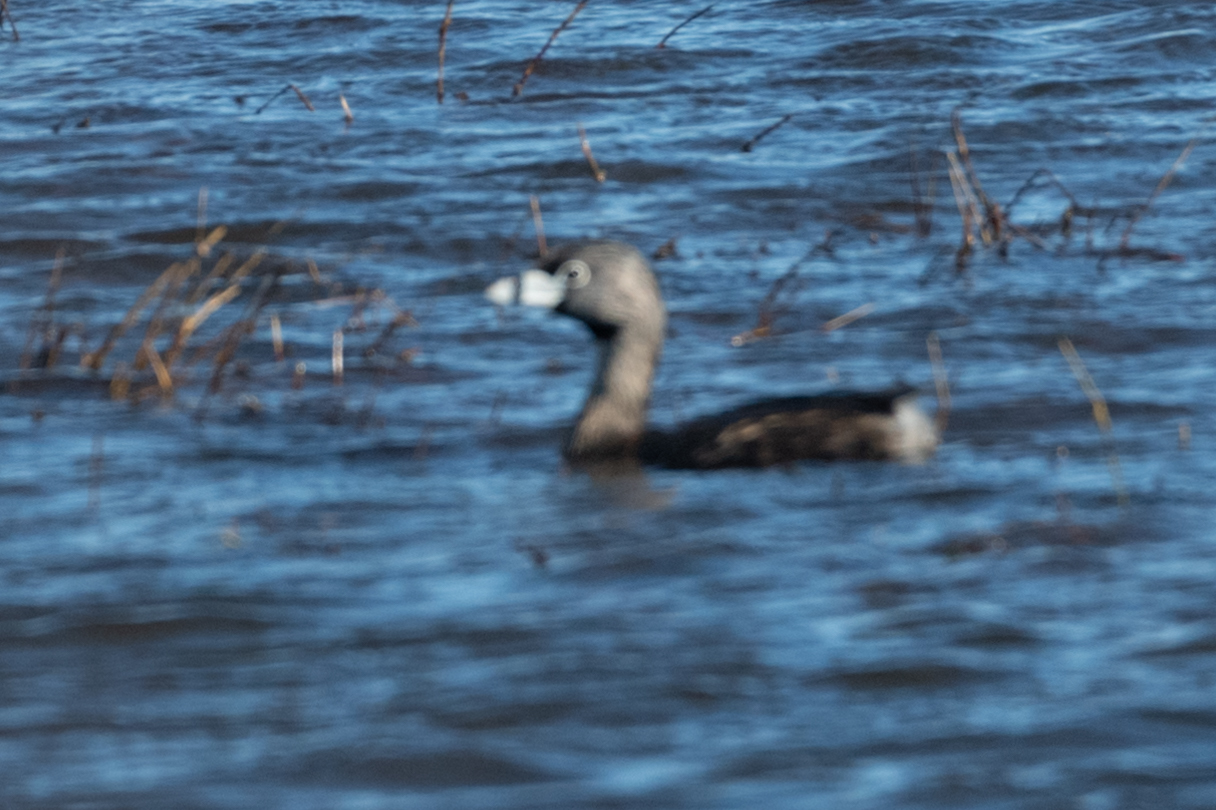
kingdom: Animalia
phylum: Chordata
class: Aves
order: Podicipediformes
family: Podicipedidae
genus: Podilymbus
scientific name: Podilymbus podiceps
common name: Pied-billed grebe
